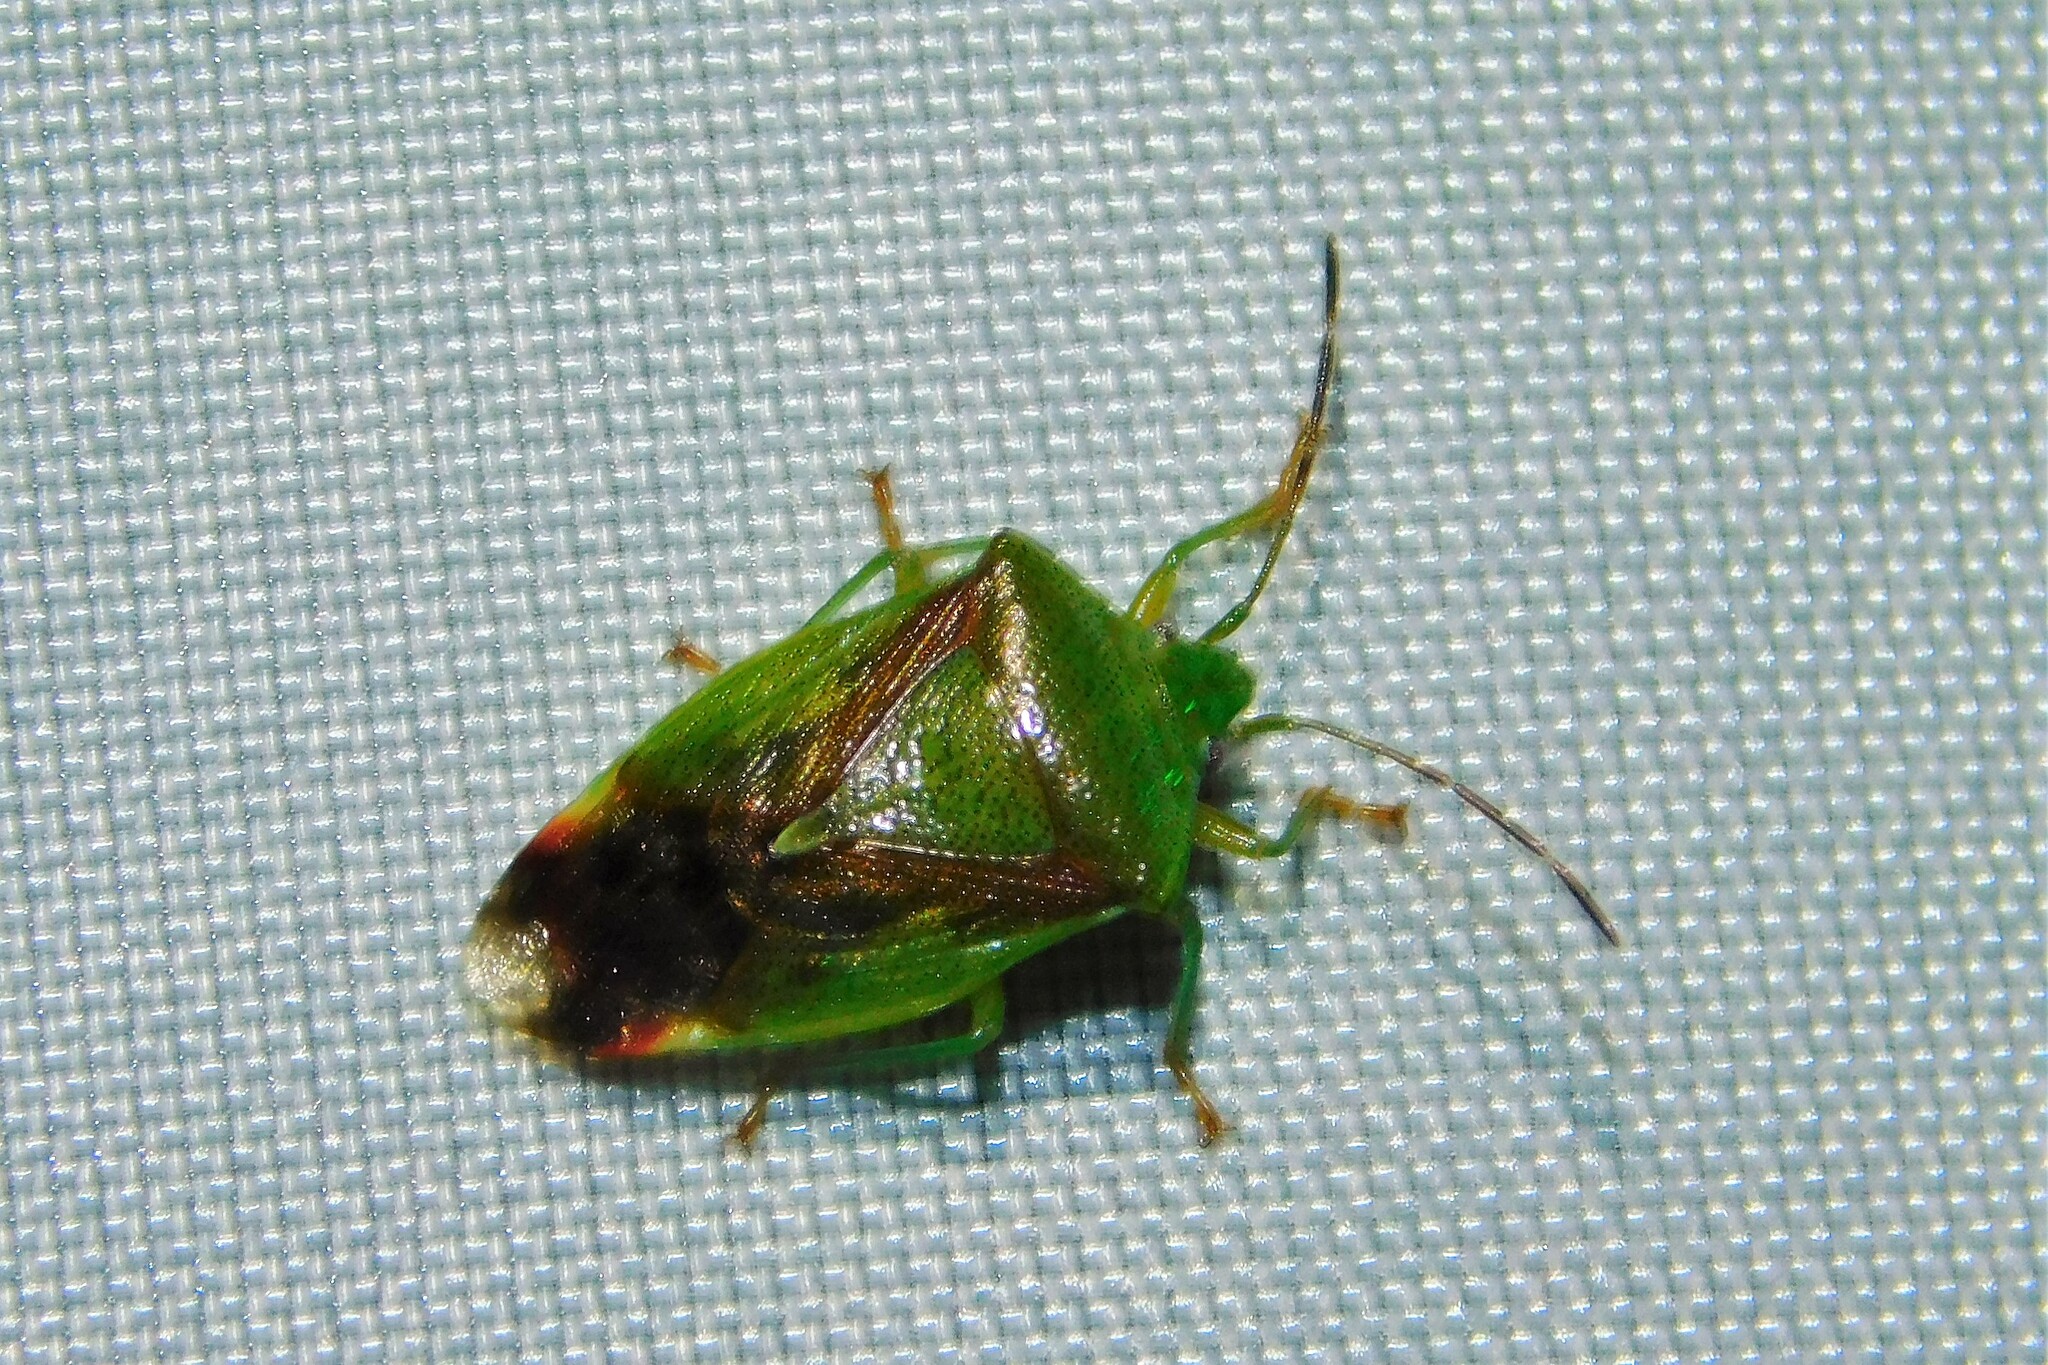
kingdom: Animalia
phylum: Arthropoda
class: Insecta
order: Hemiptera
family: Acanthosomatidae
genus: Elasmostethus
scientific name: Elasmostethus
